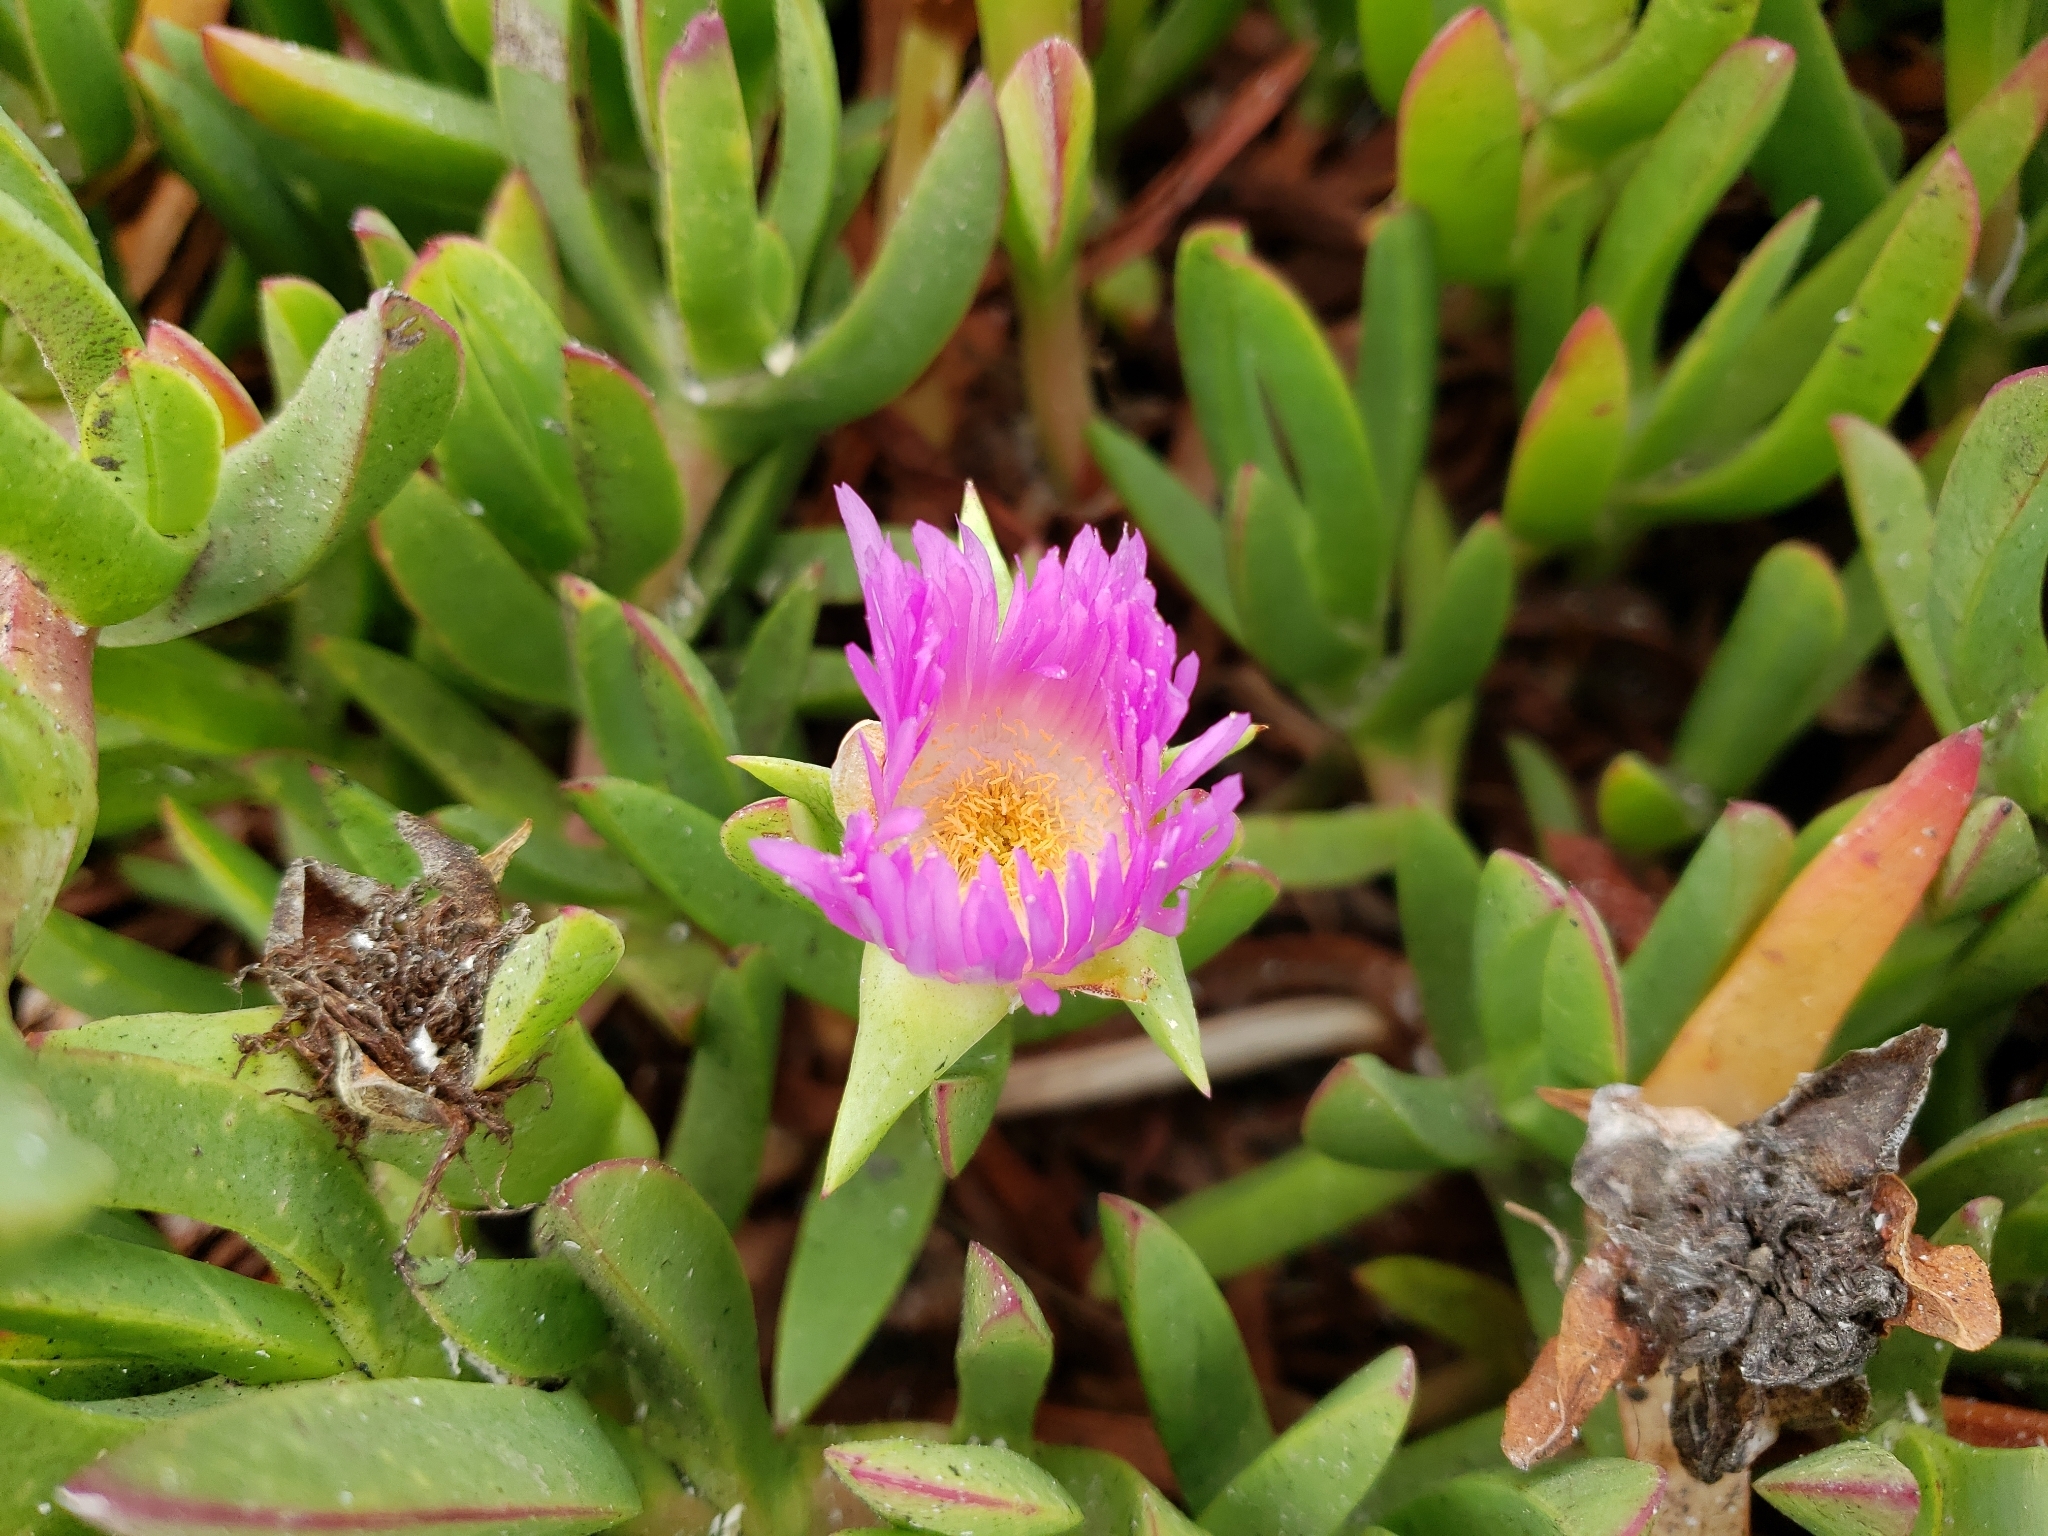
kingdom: Plantae
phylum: Tracheophyta
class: Magnoliopsida
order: Caryophyllales
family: Aizoaceae
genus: Carpobrotus
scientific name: Carpobrotus chilensis
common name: Sea fig
